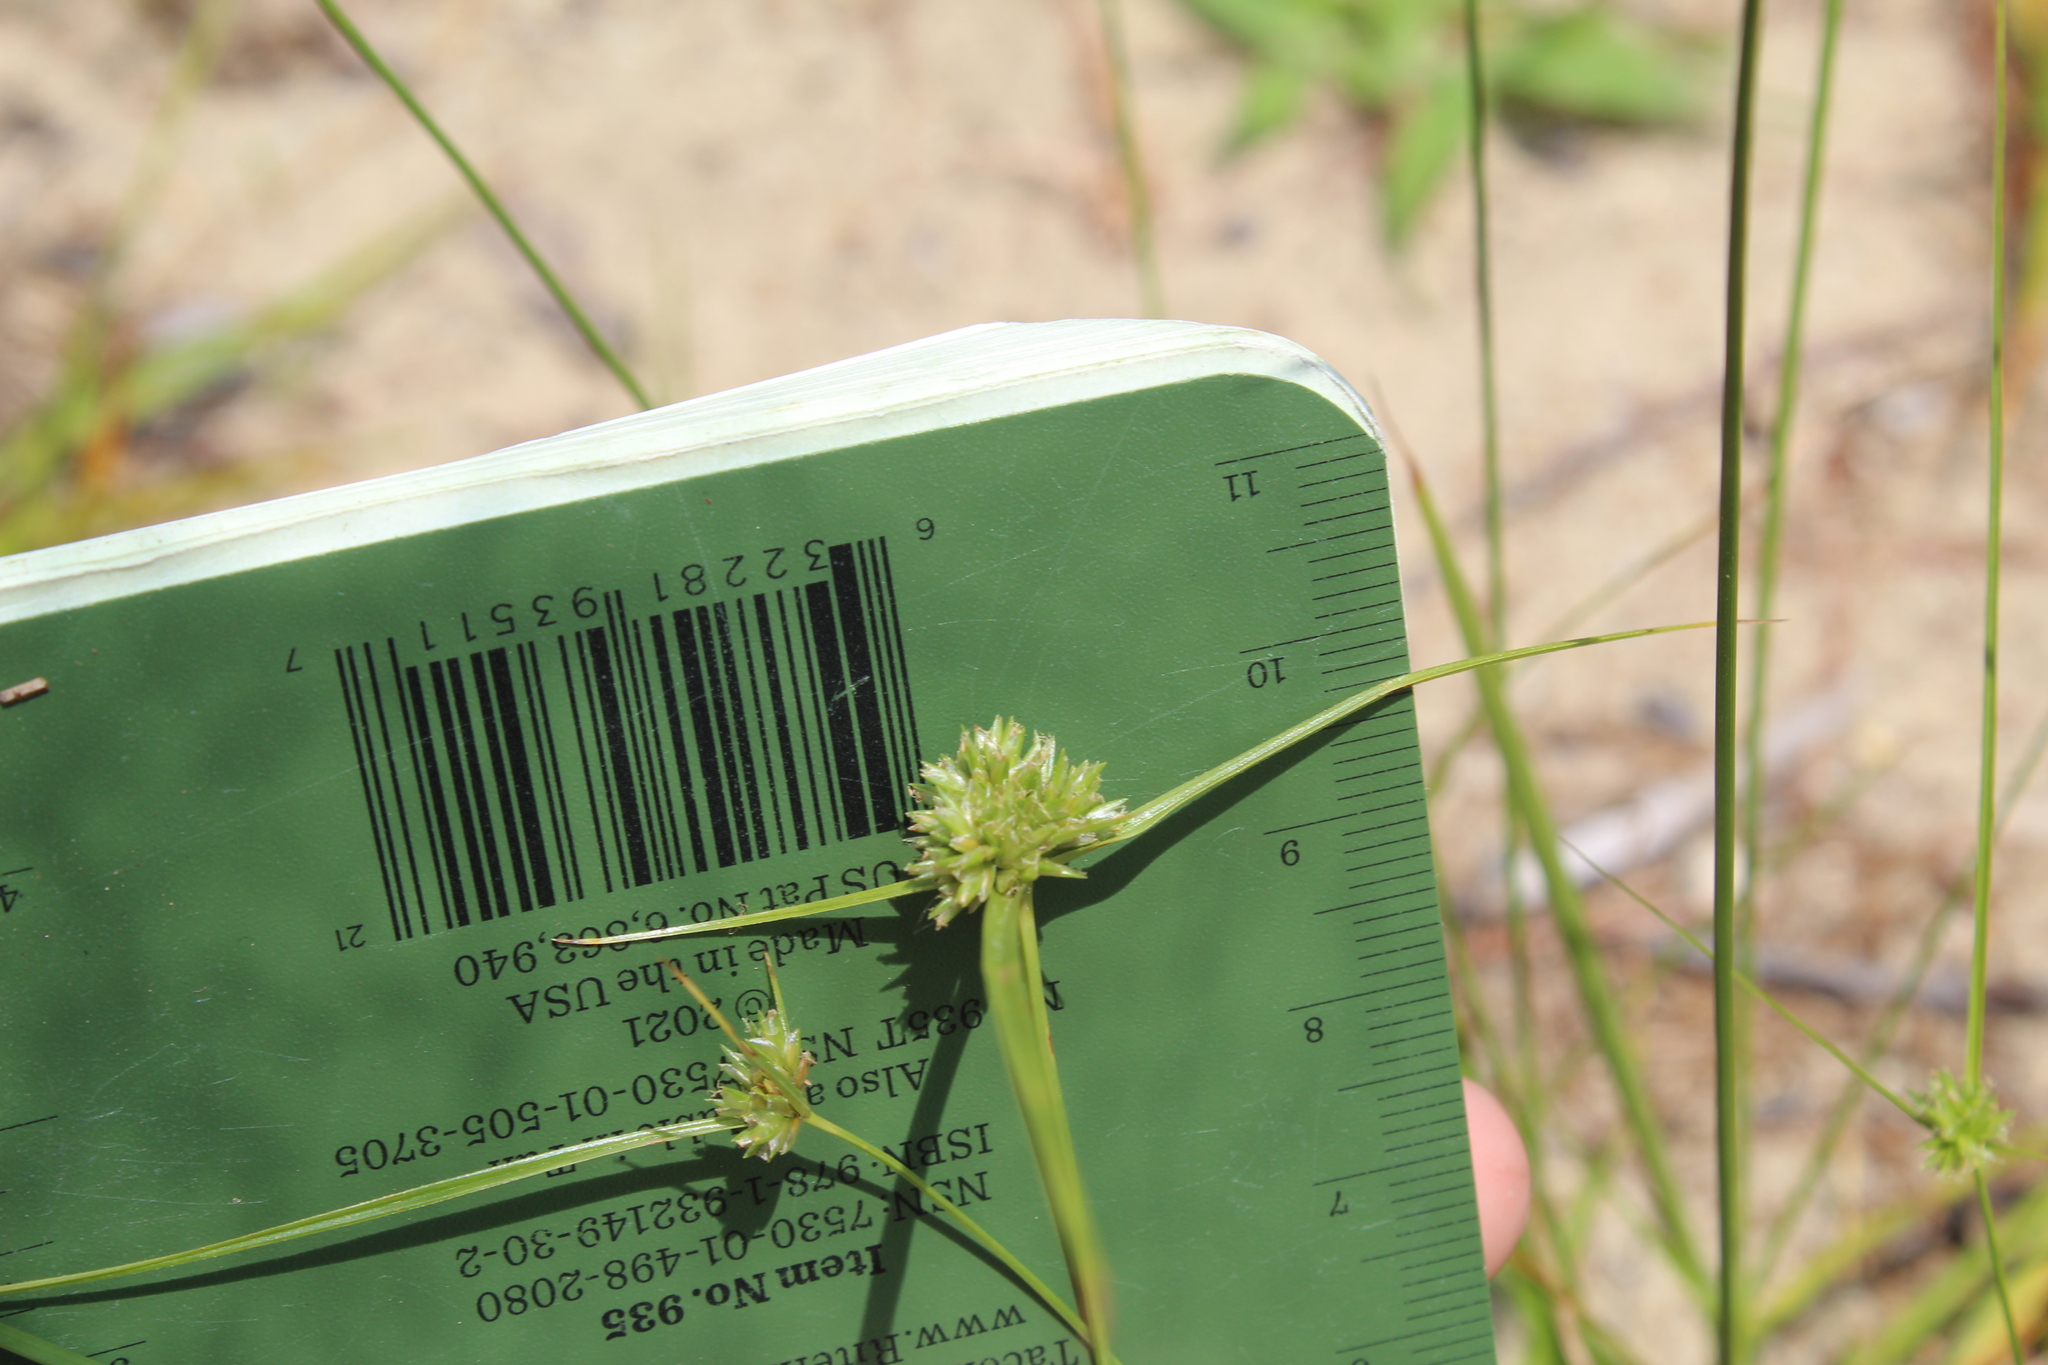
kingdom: Plantae
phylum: Tracheophyta
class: Liliopsida
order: Poales
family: Cyperaceae
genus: Cyperus
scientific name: Cyperus lupulinus
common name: Great plains flatsedge
